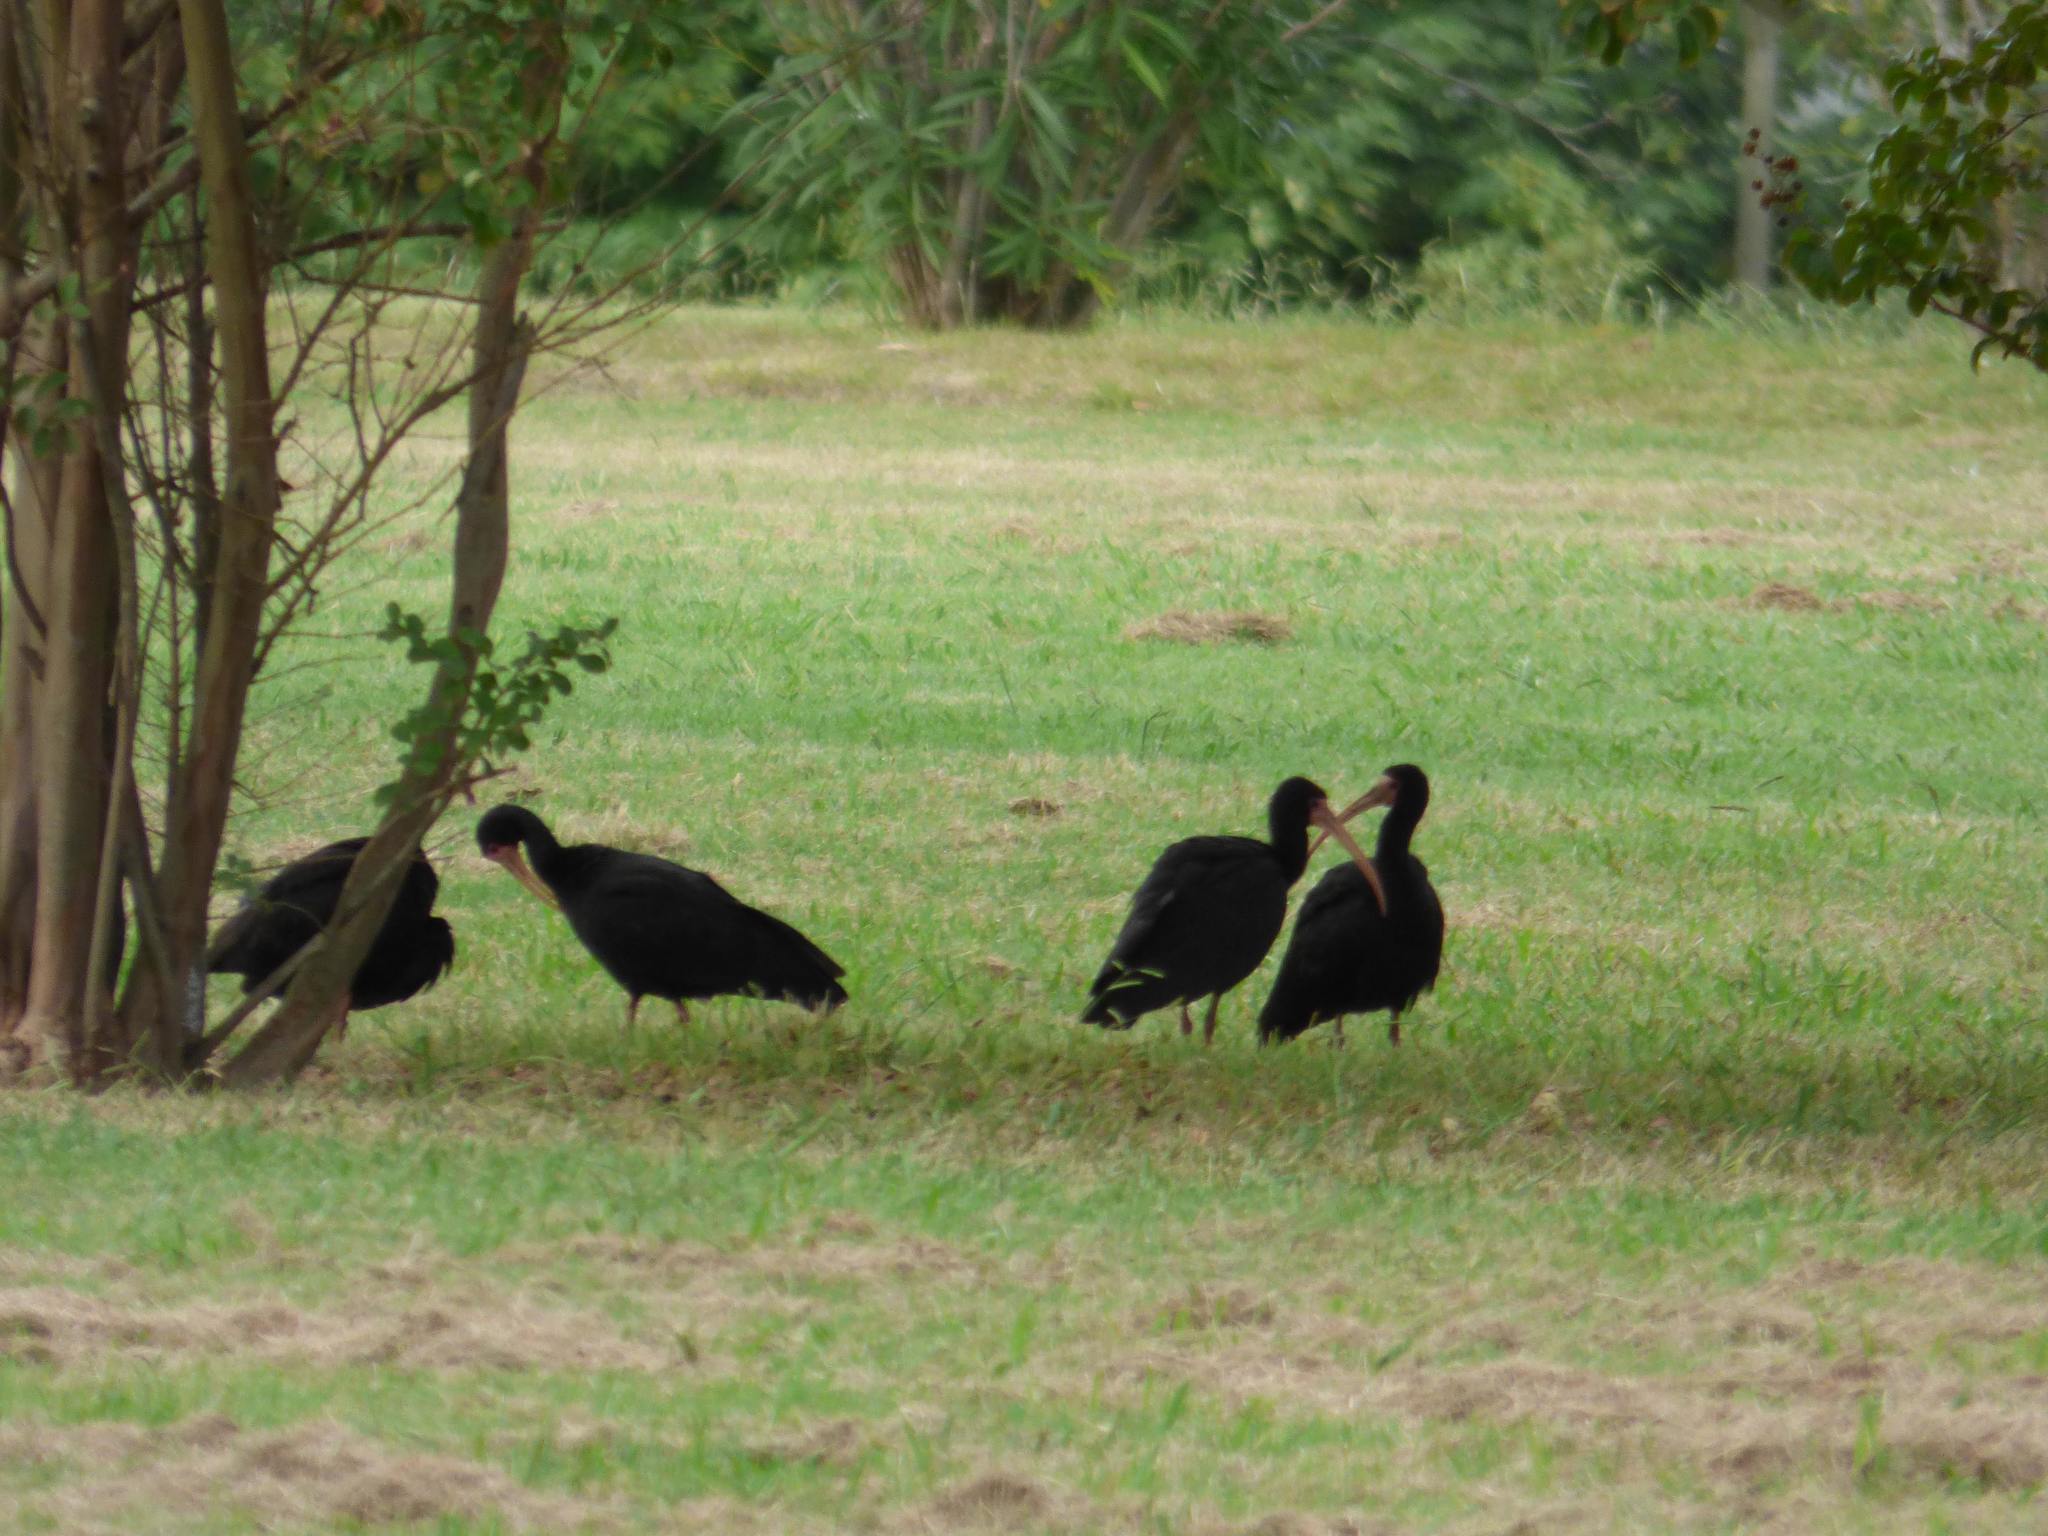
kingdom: Animalia
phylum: Chordata
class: Aves
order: Pelecaniformes
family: Threskiornithidae
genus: Phimosus
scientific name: Phimosus infuscatus
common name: Bare-faced ibis
